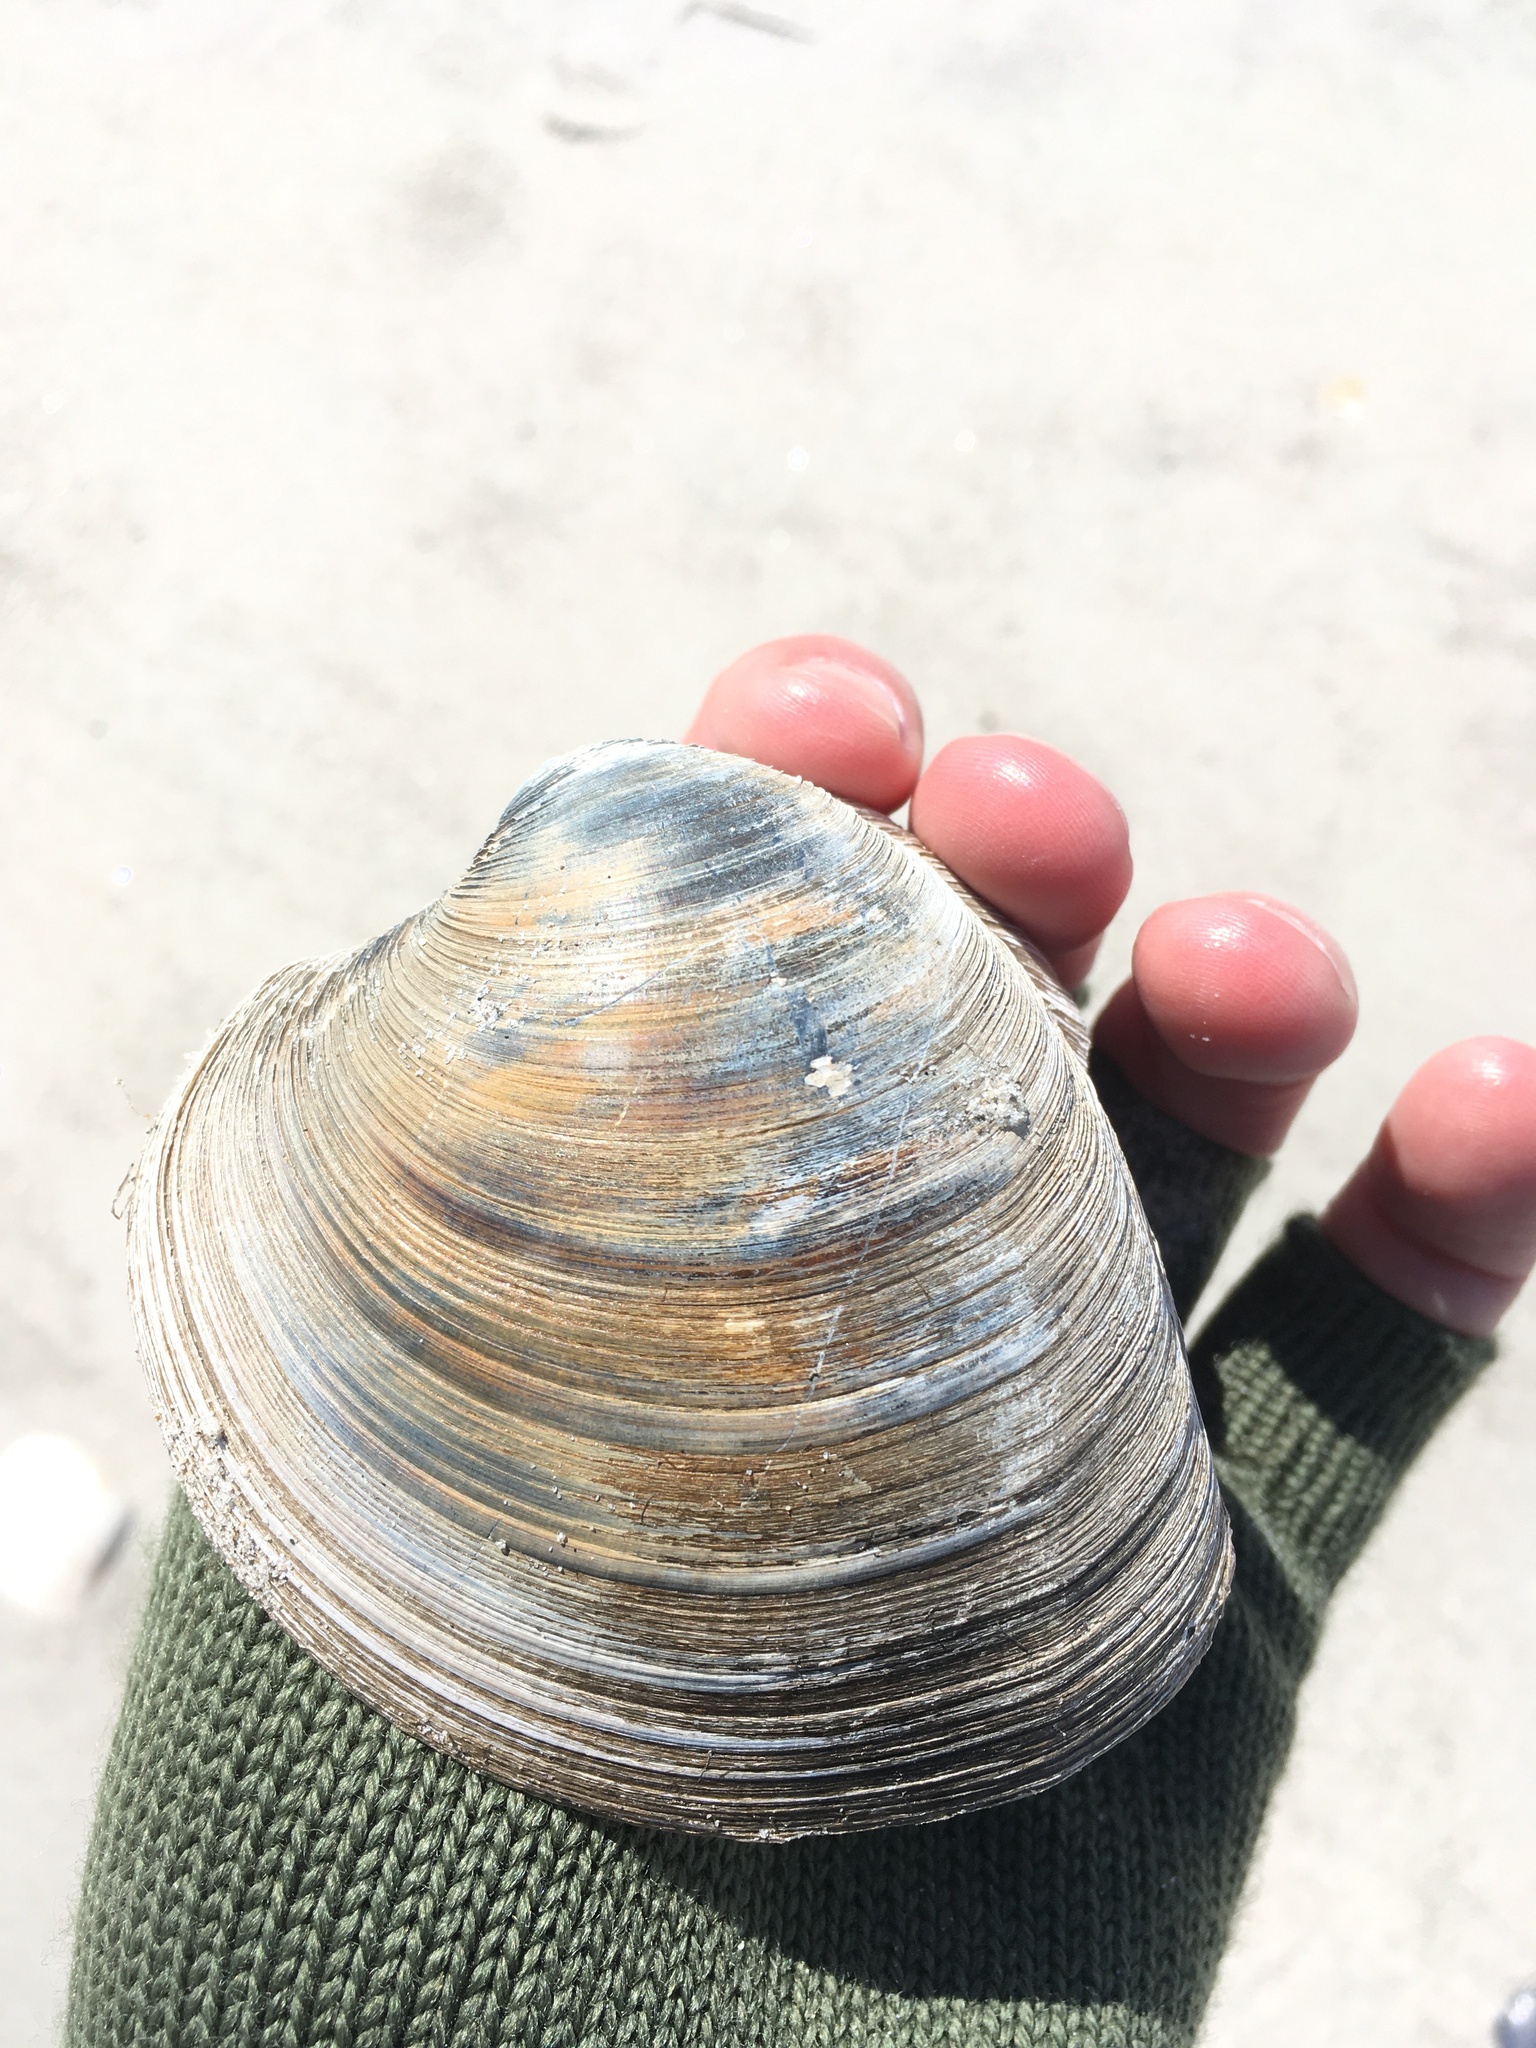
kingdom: Animalia
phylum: Mollusca
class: Bivalvia
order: Venerida
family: Veneridae
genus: Mercenaria
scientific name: Mercenaria mercenaria
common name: American hard-shelled clam
